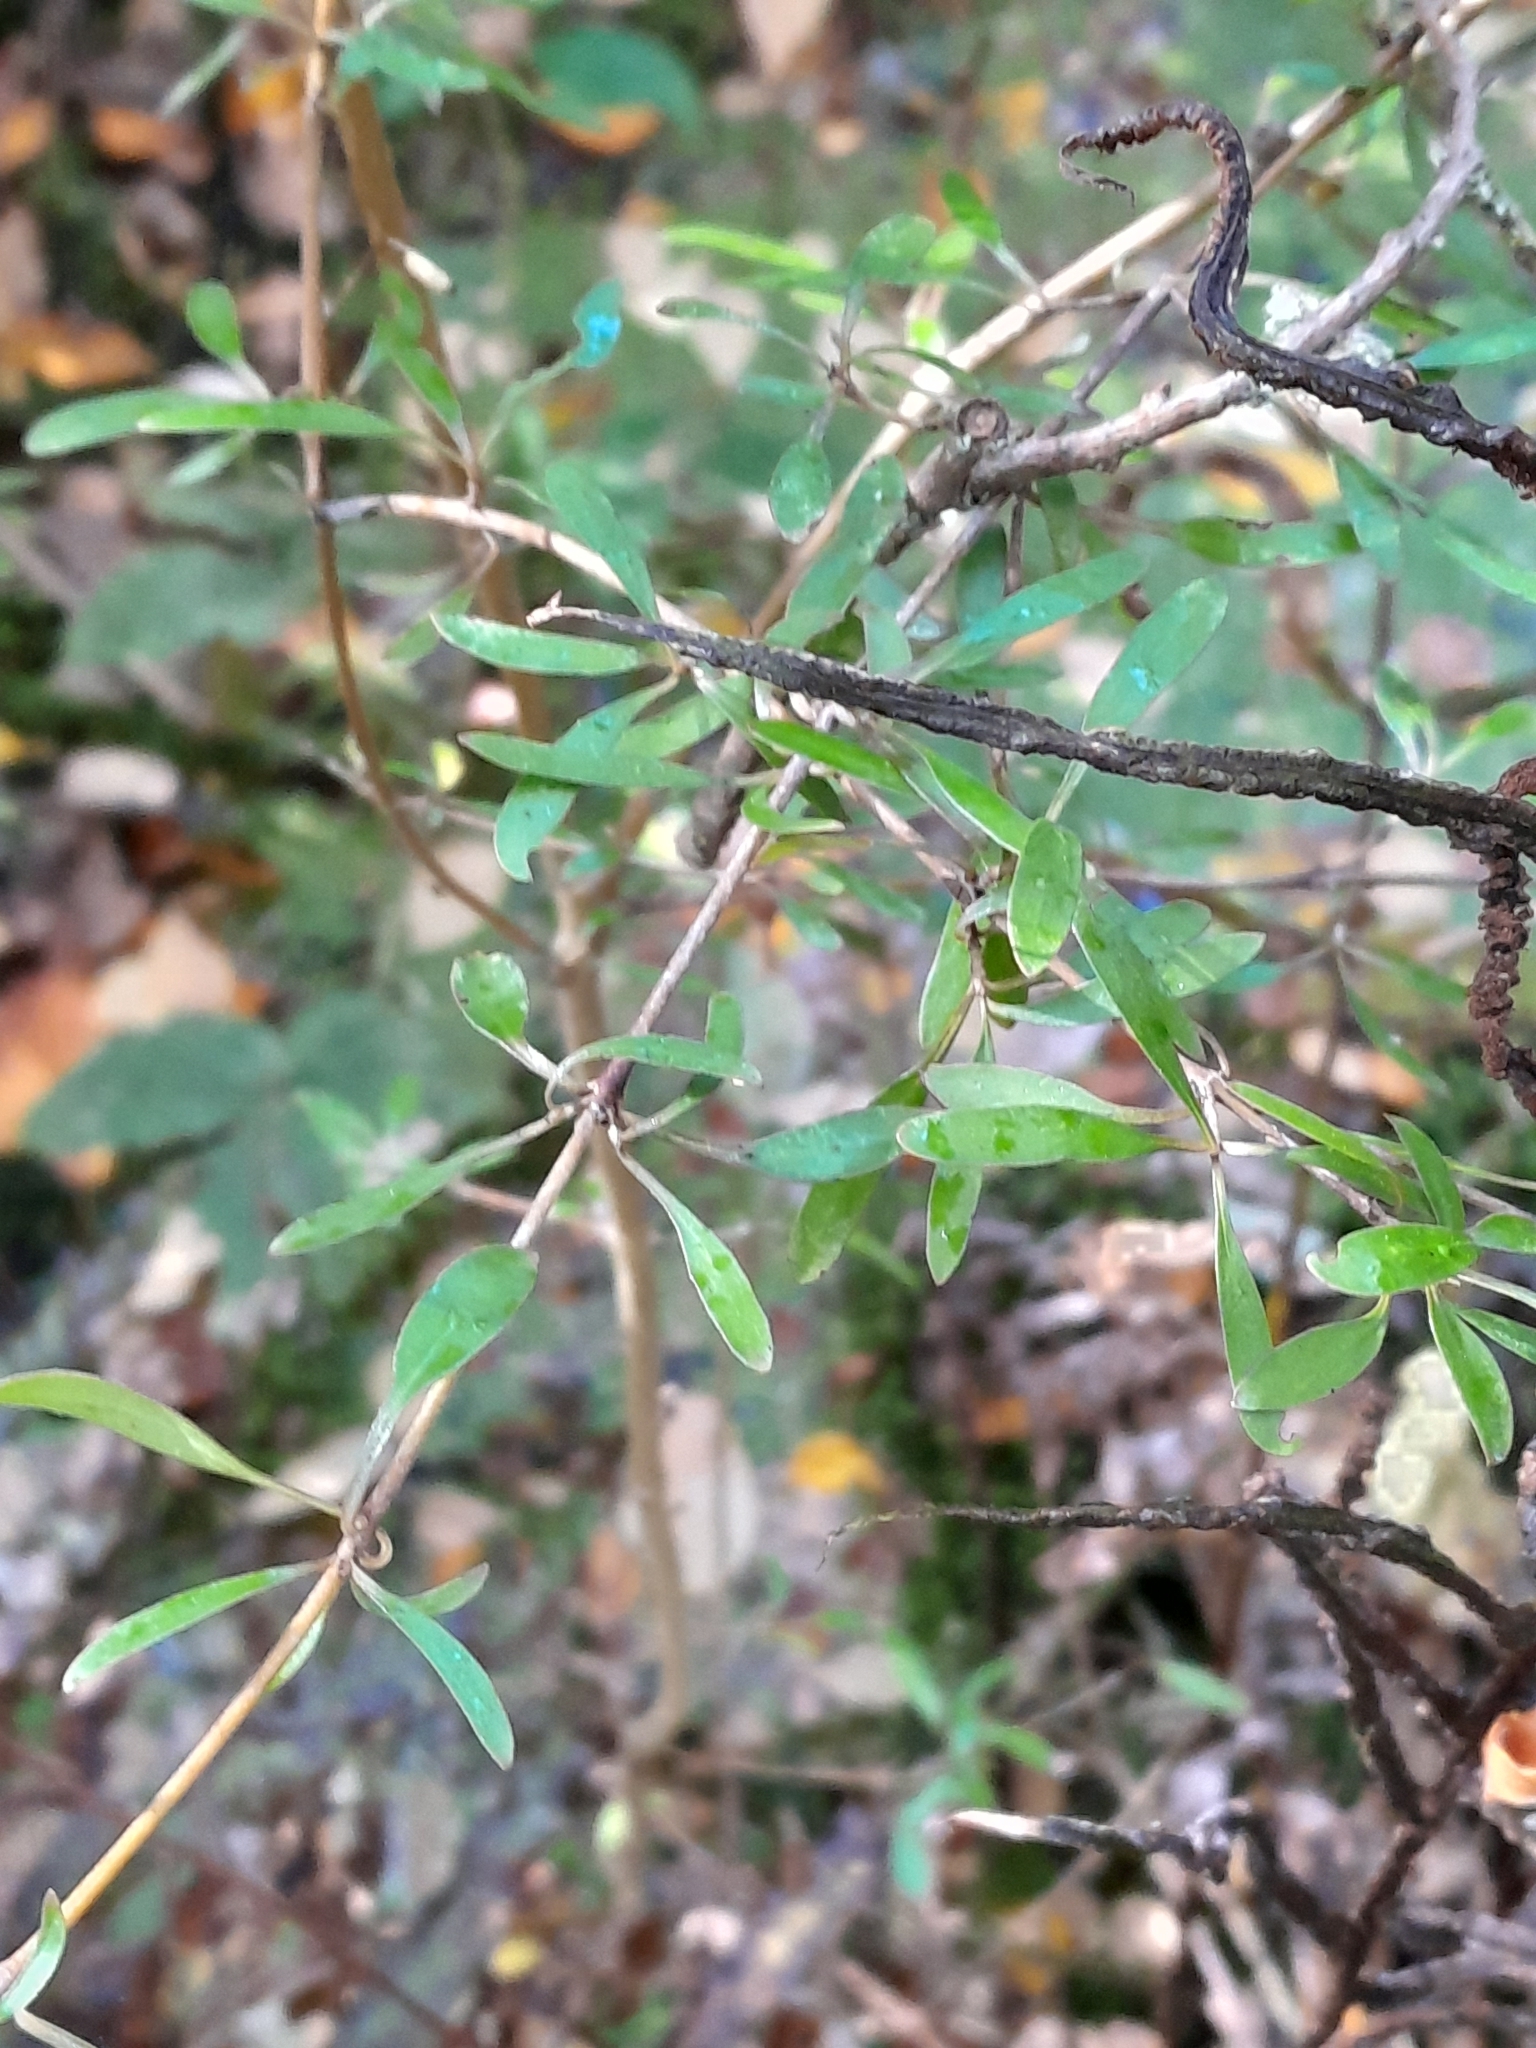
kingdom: Plantae
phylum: Tracheophyta
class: Magnoliopsida
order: Gentianales
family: Rubiaceae
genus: Coprosma
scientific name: Coprosma cunninghamii
